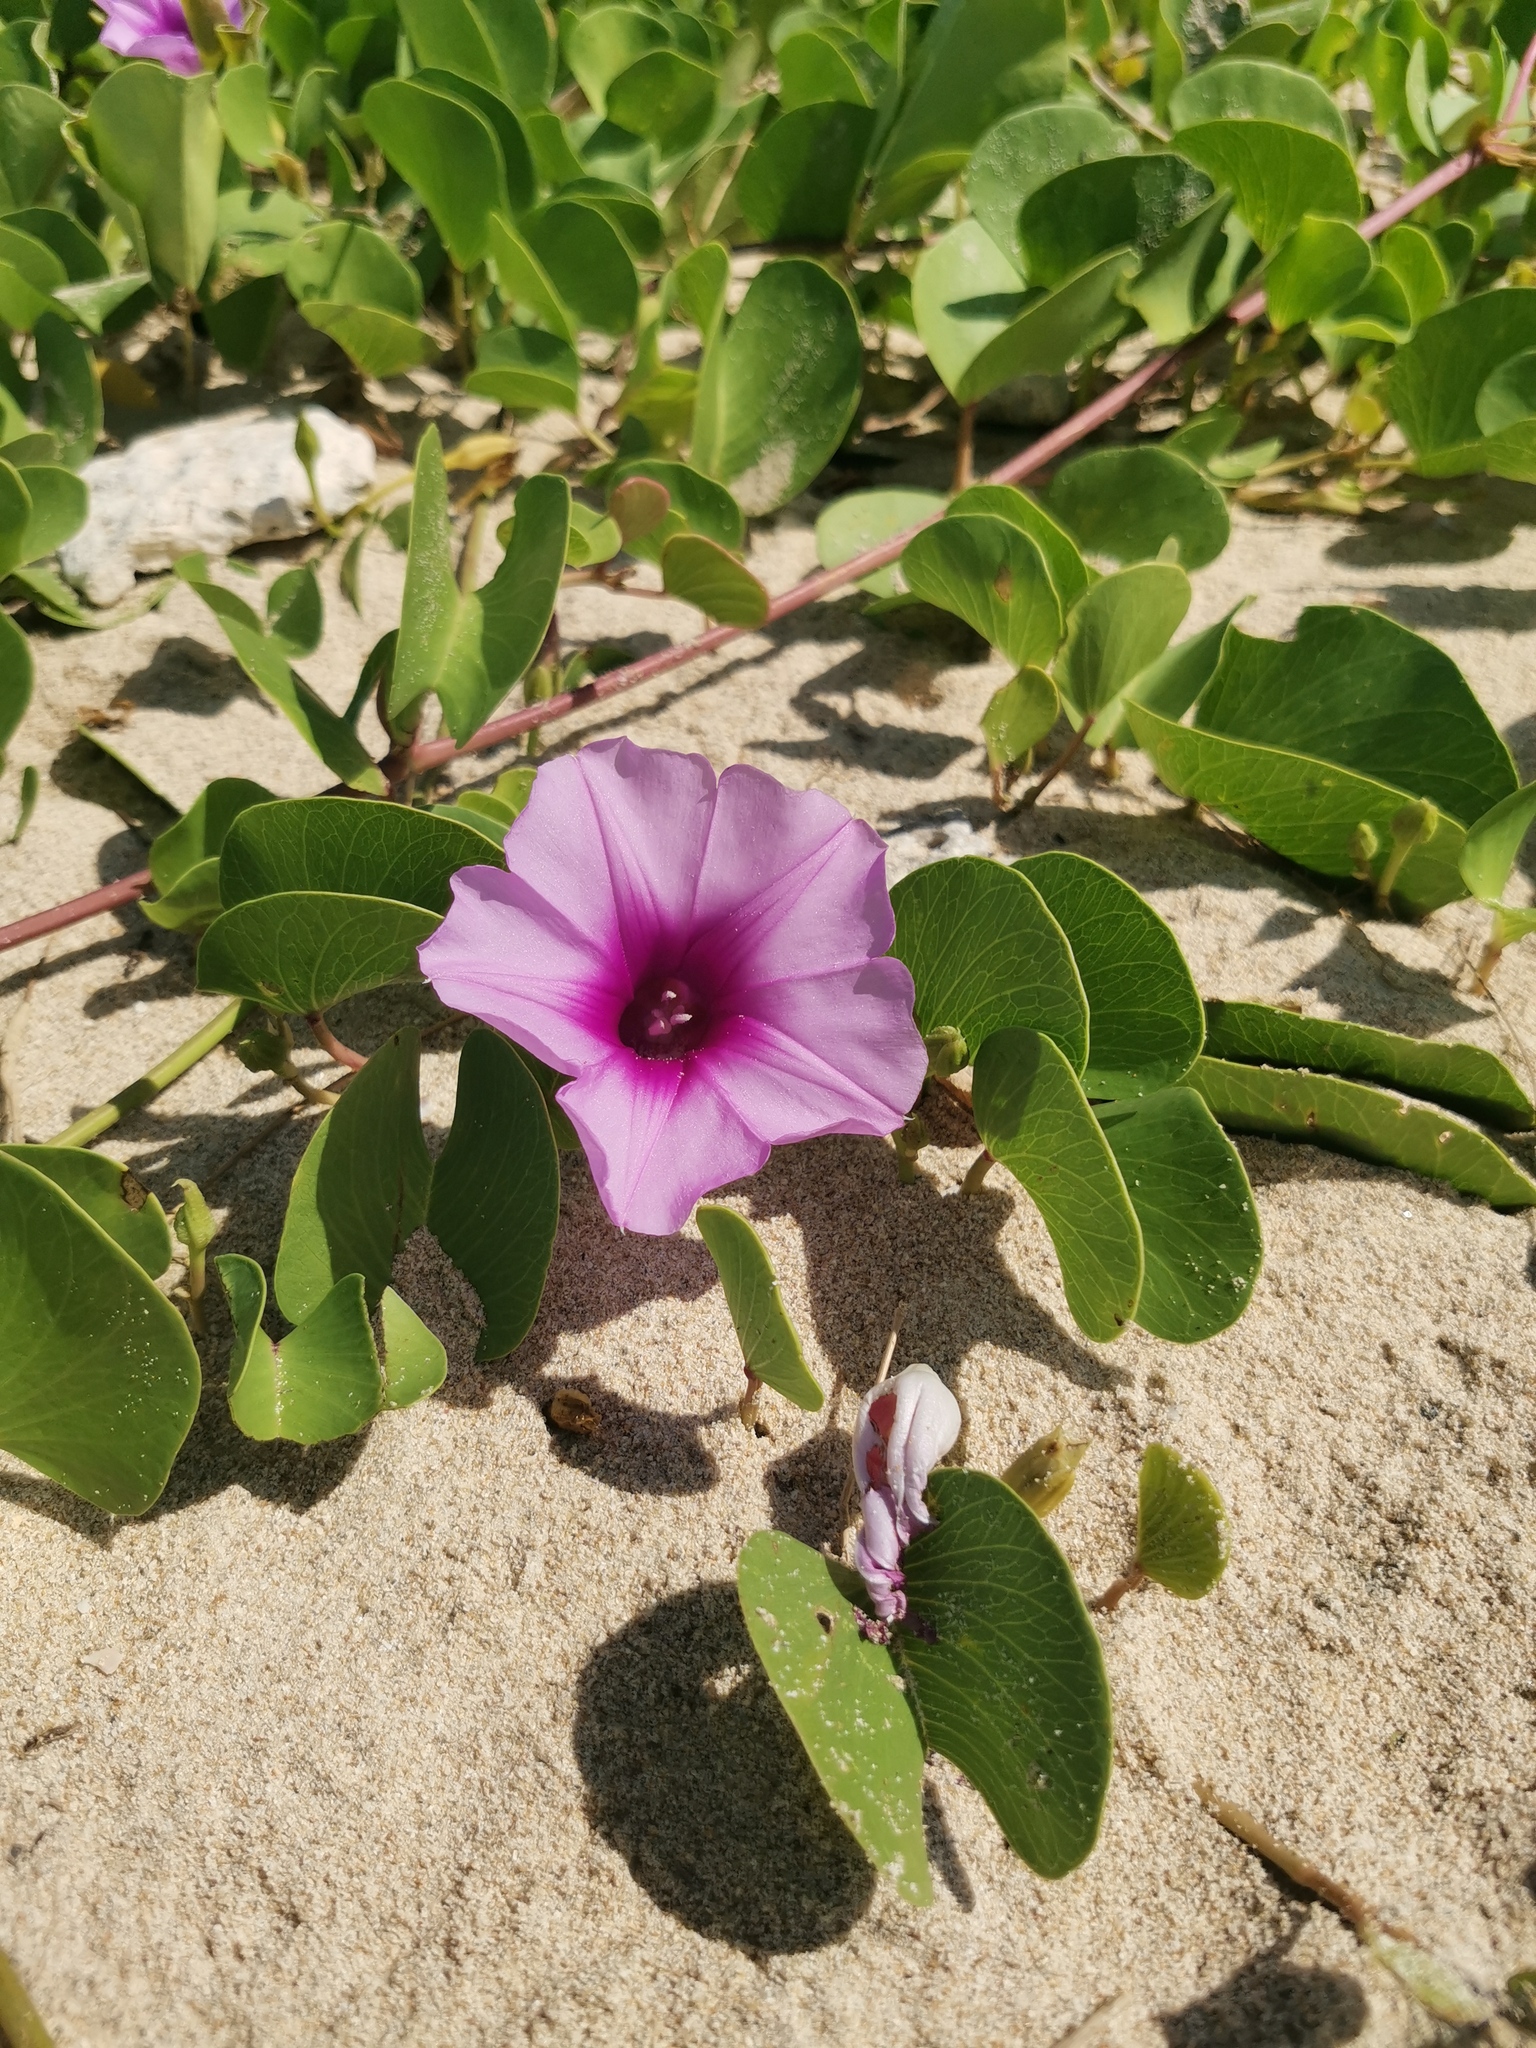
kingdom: Plantae
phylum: Tracheophyta
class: Magnoliopsida
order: Solanales
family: Convolvulaceae
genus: Ipomoea
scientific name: Ipomoea pes-caprae
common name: Beach morning glory
